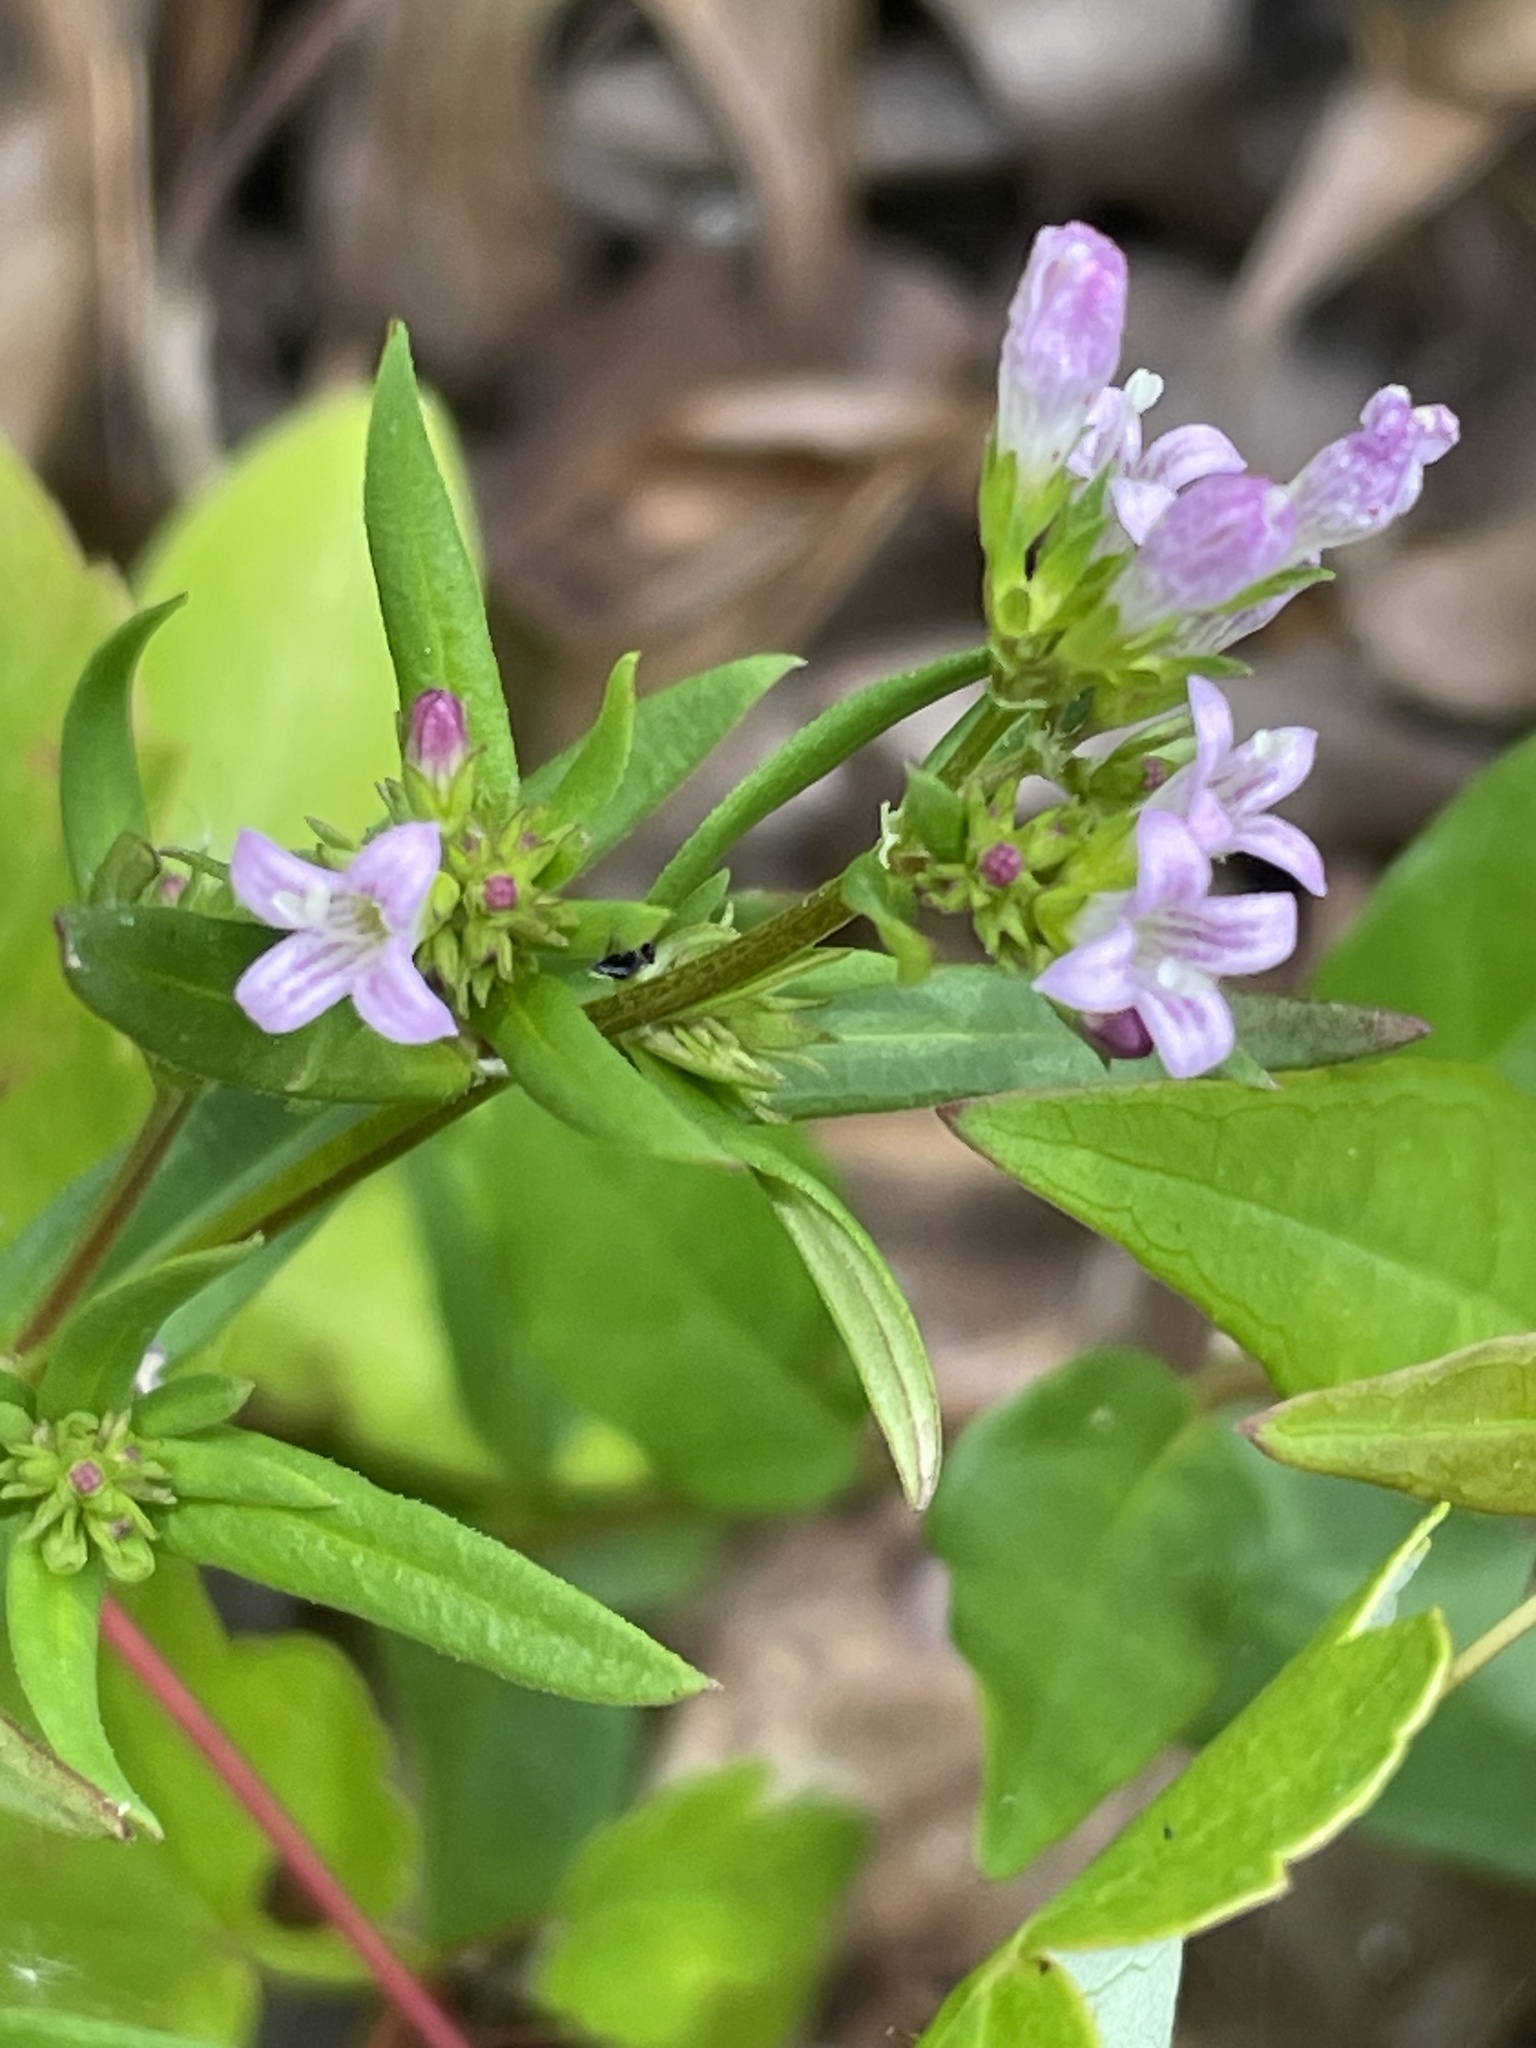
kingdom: Plantae
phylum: Tracheophyta
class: Magnoliopsida
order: Gentianales
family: Rubiaceae
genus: Houstonia
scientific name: Houstonia purpurea
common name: Summer bluet
